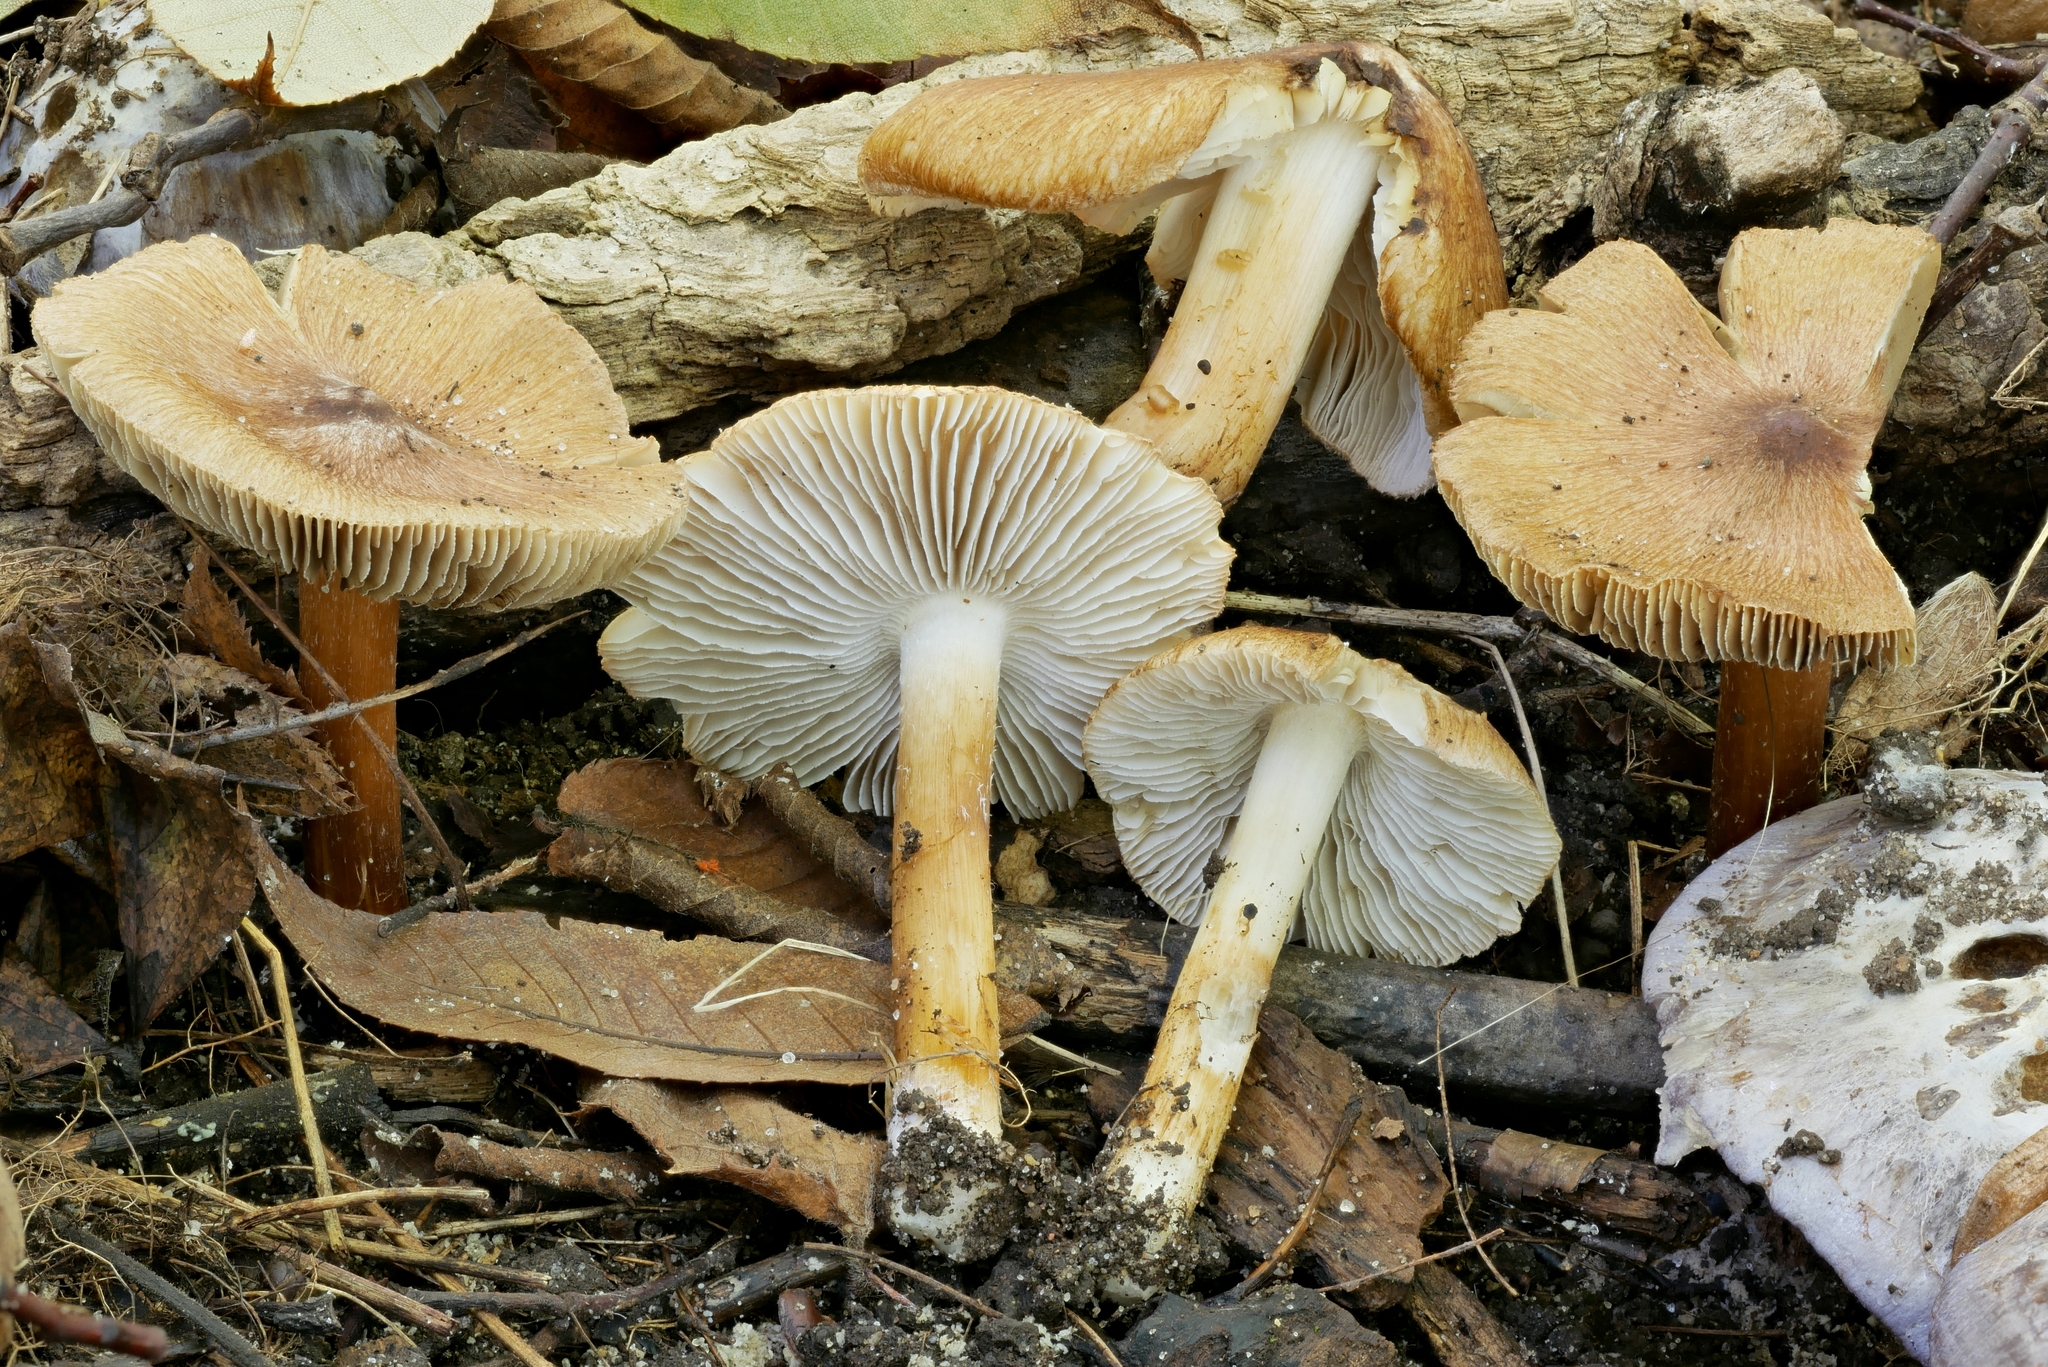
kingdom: Fungi
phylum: Basidiomycota
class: Agaricomycetes
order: Agaricales
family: Inocybaceae
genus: Inosperma
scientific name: Inosperma lanatodiscum
